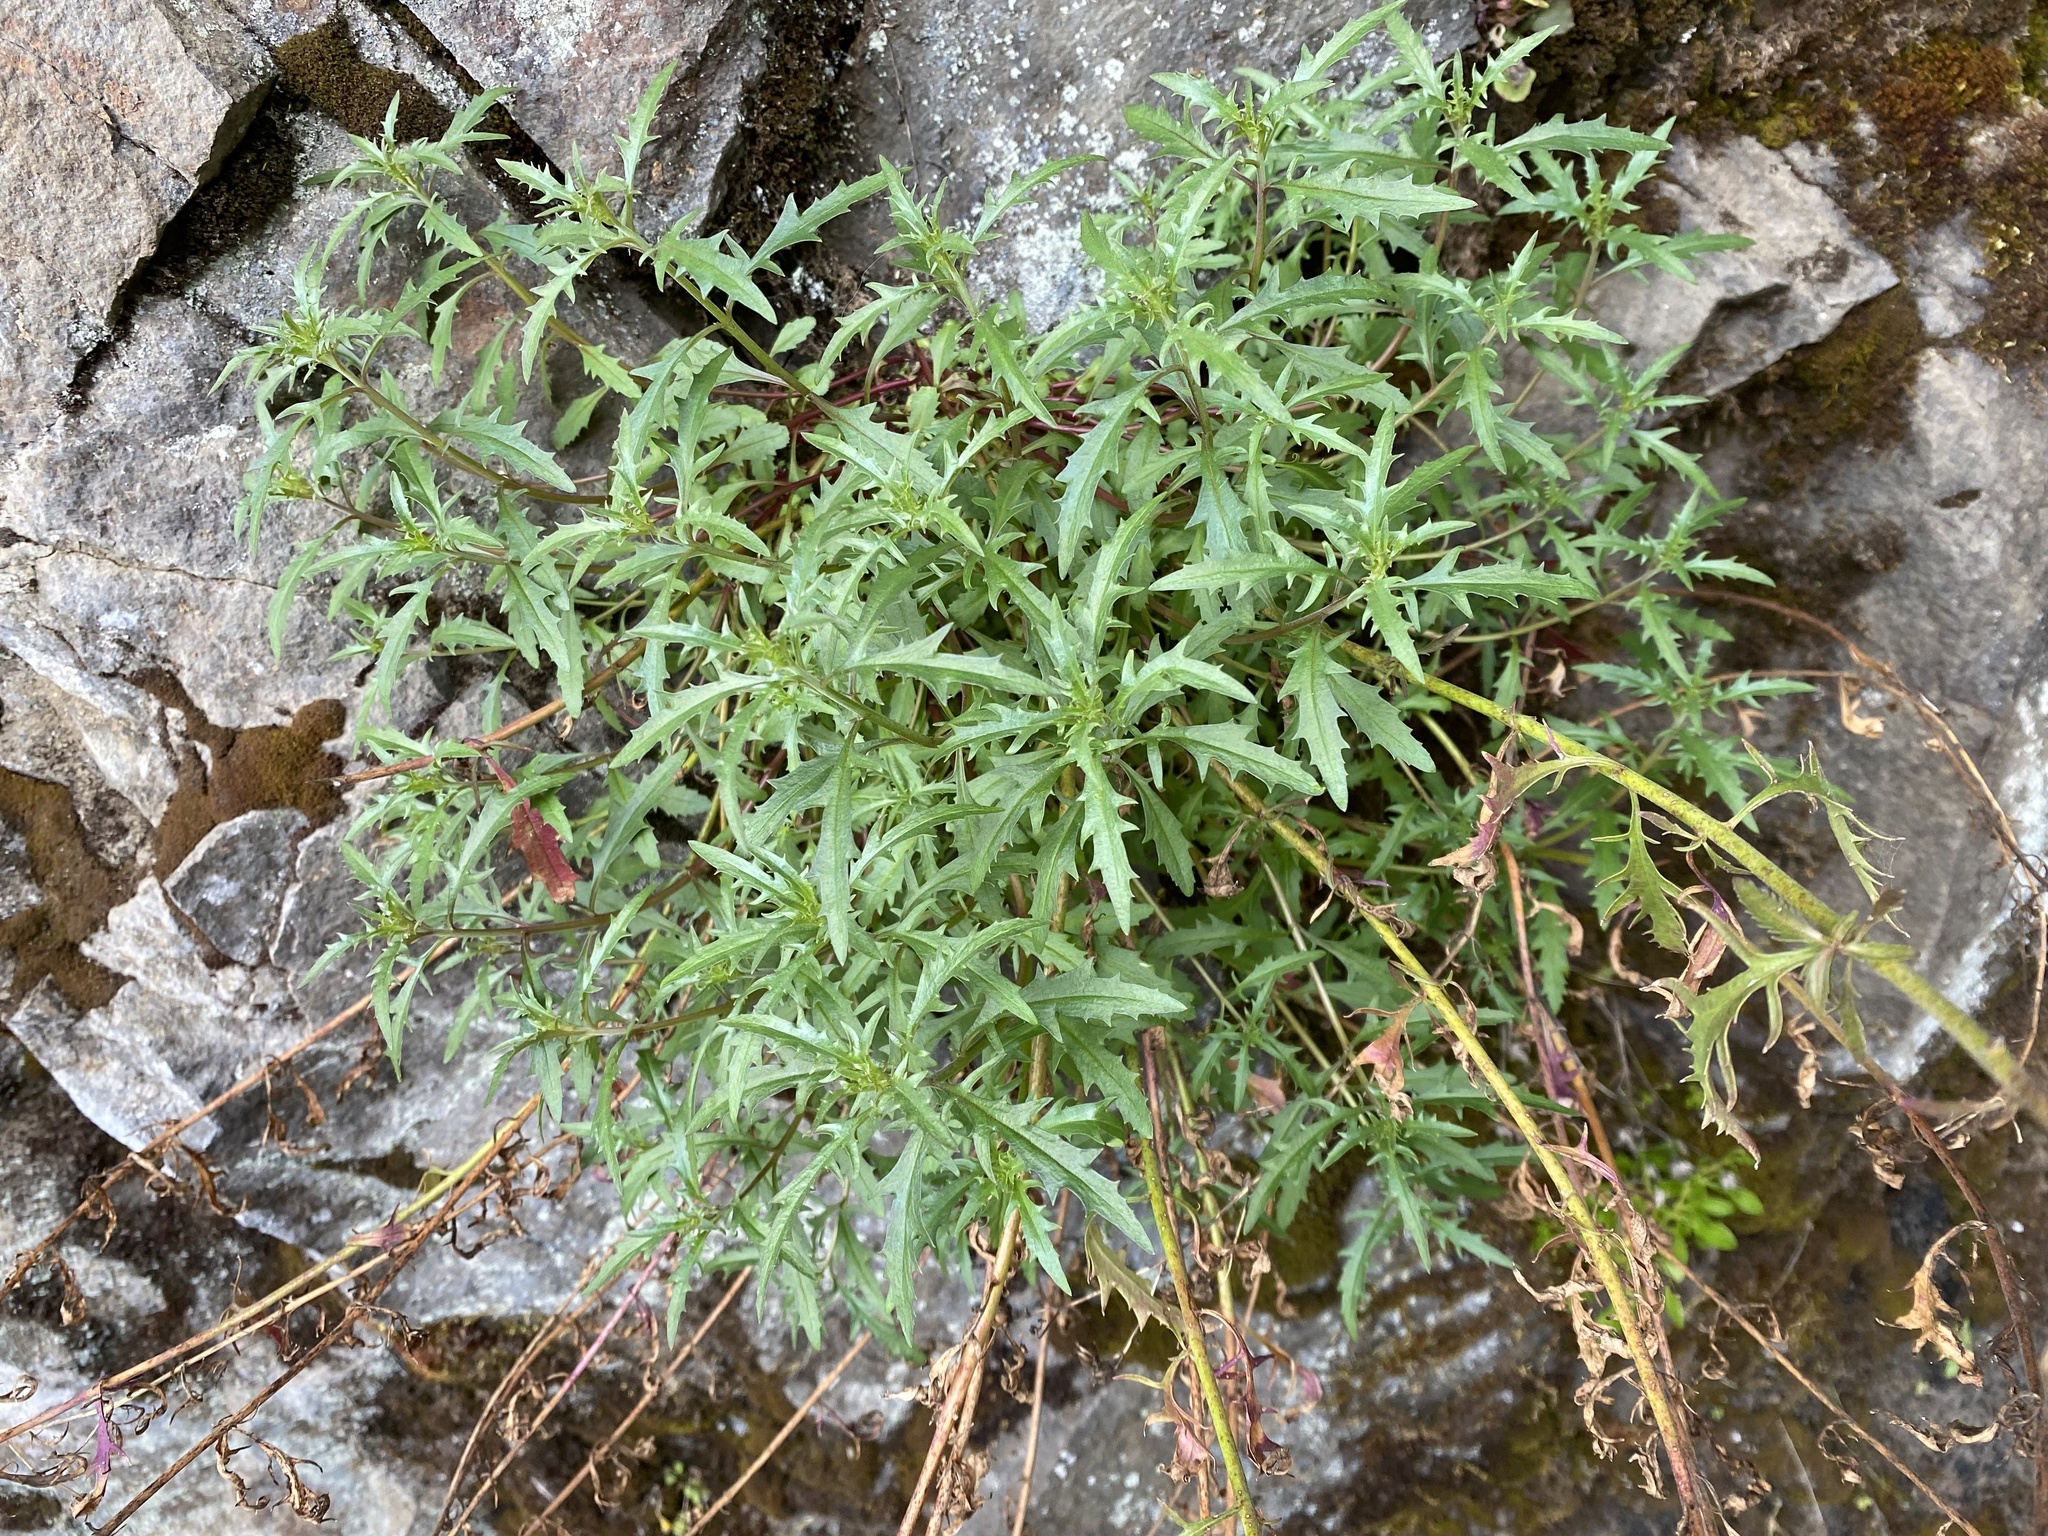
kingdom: Plantae
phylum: Tracheophyta
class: Magnoliopsida
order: Lamiales
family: Plantaginaceae
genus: Penstemon
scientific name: Penstemon richardsonii
